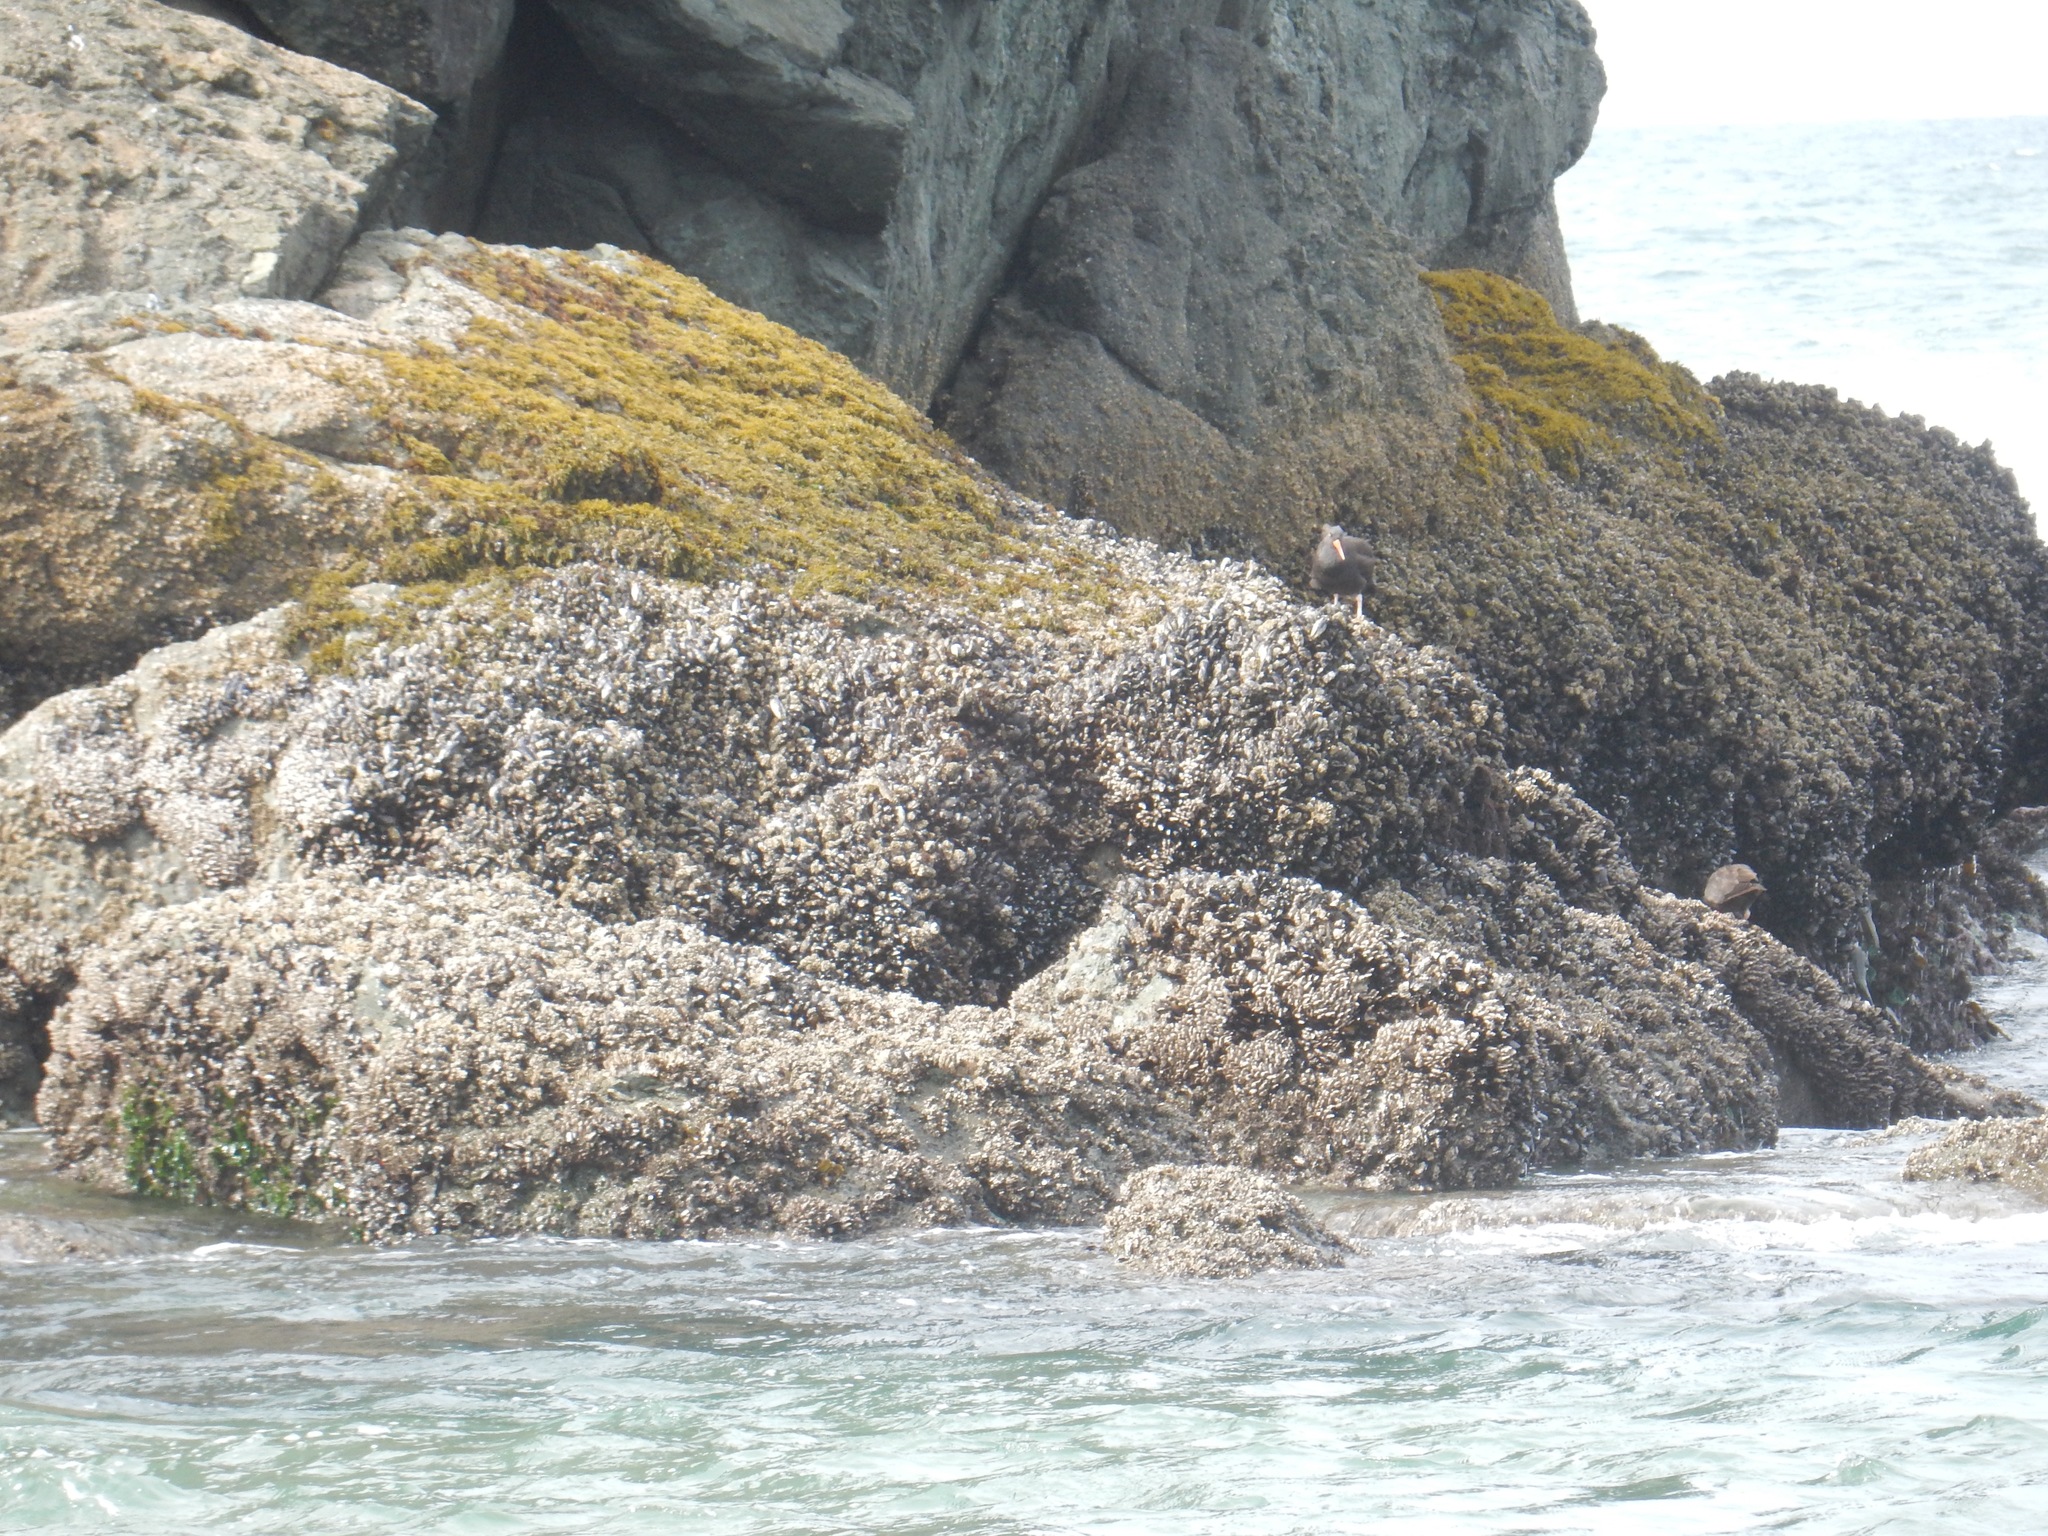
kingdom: Animalia
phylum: Chordata
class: Aves
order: Charadriiformes
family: Haematopodidae
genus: Haematopus
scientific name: Haematopus bachmani
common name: Black oystercatcher
